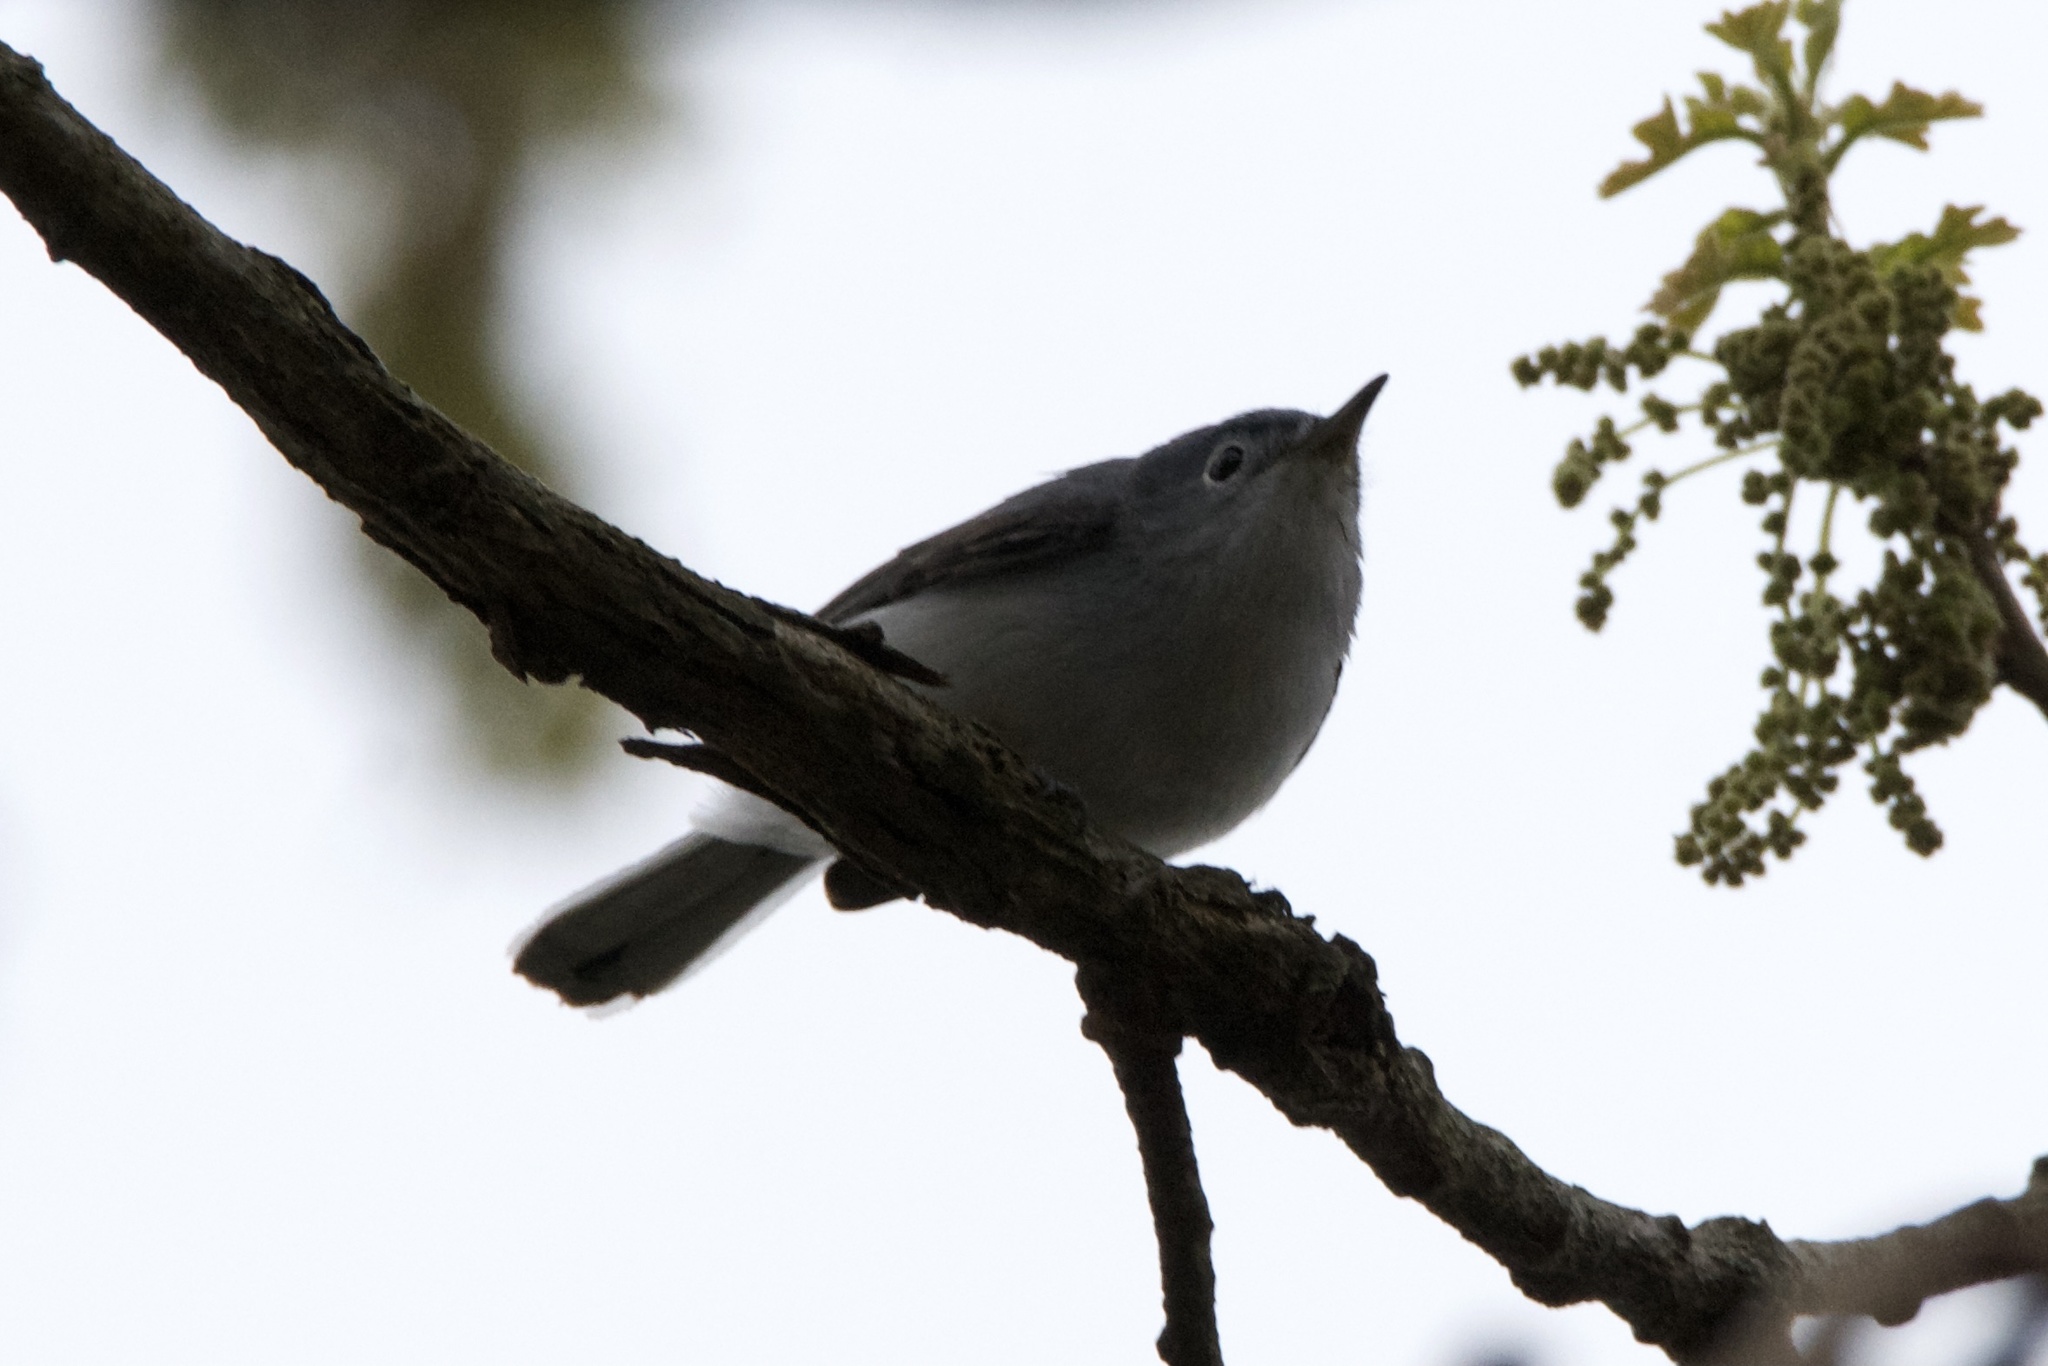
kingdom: Animalia
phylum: Chordata
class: Aves
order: Passeriformes
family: Polioptilidae
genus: Polioptila
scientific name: Polioptila caerulea
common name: Blue-gray gnatcatcher
